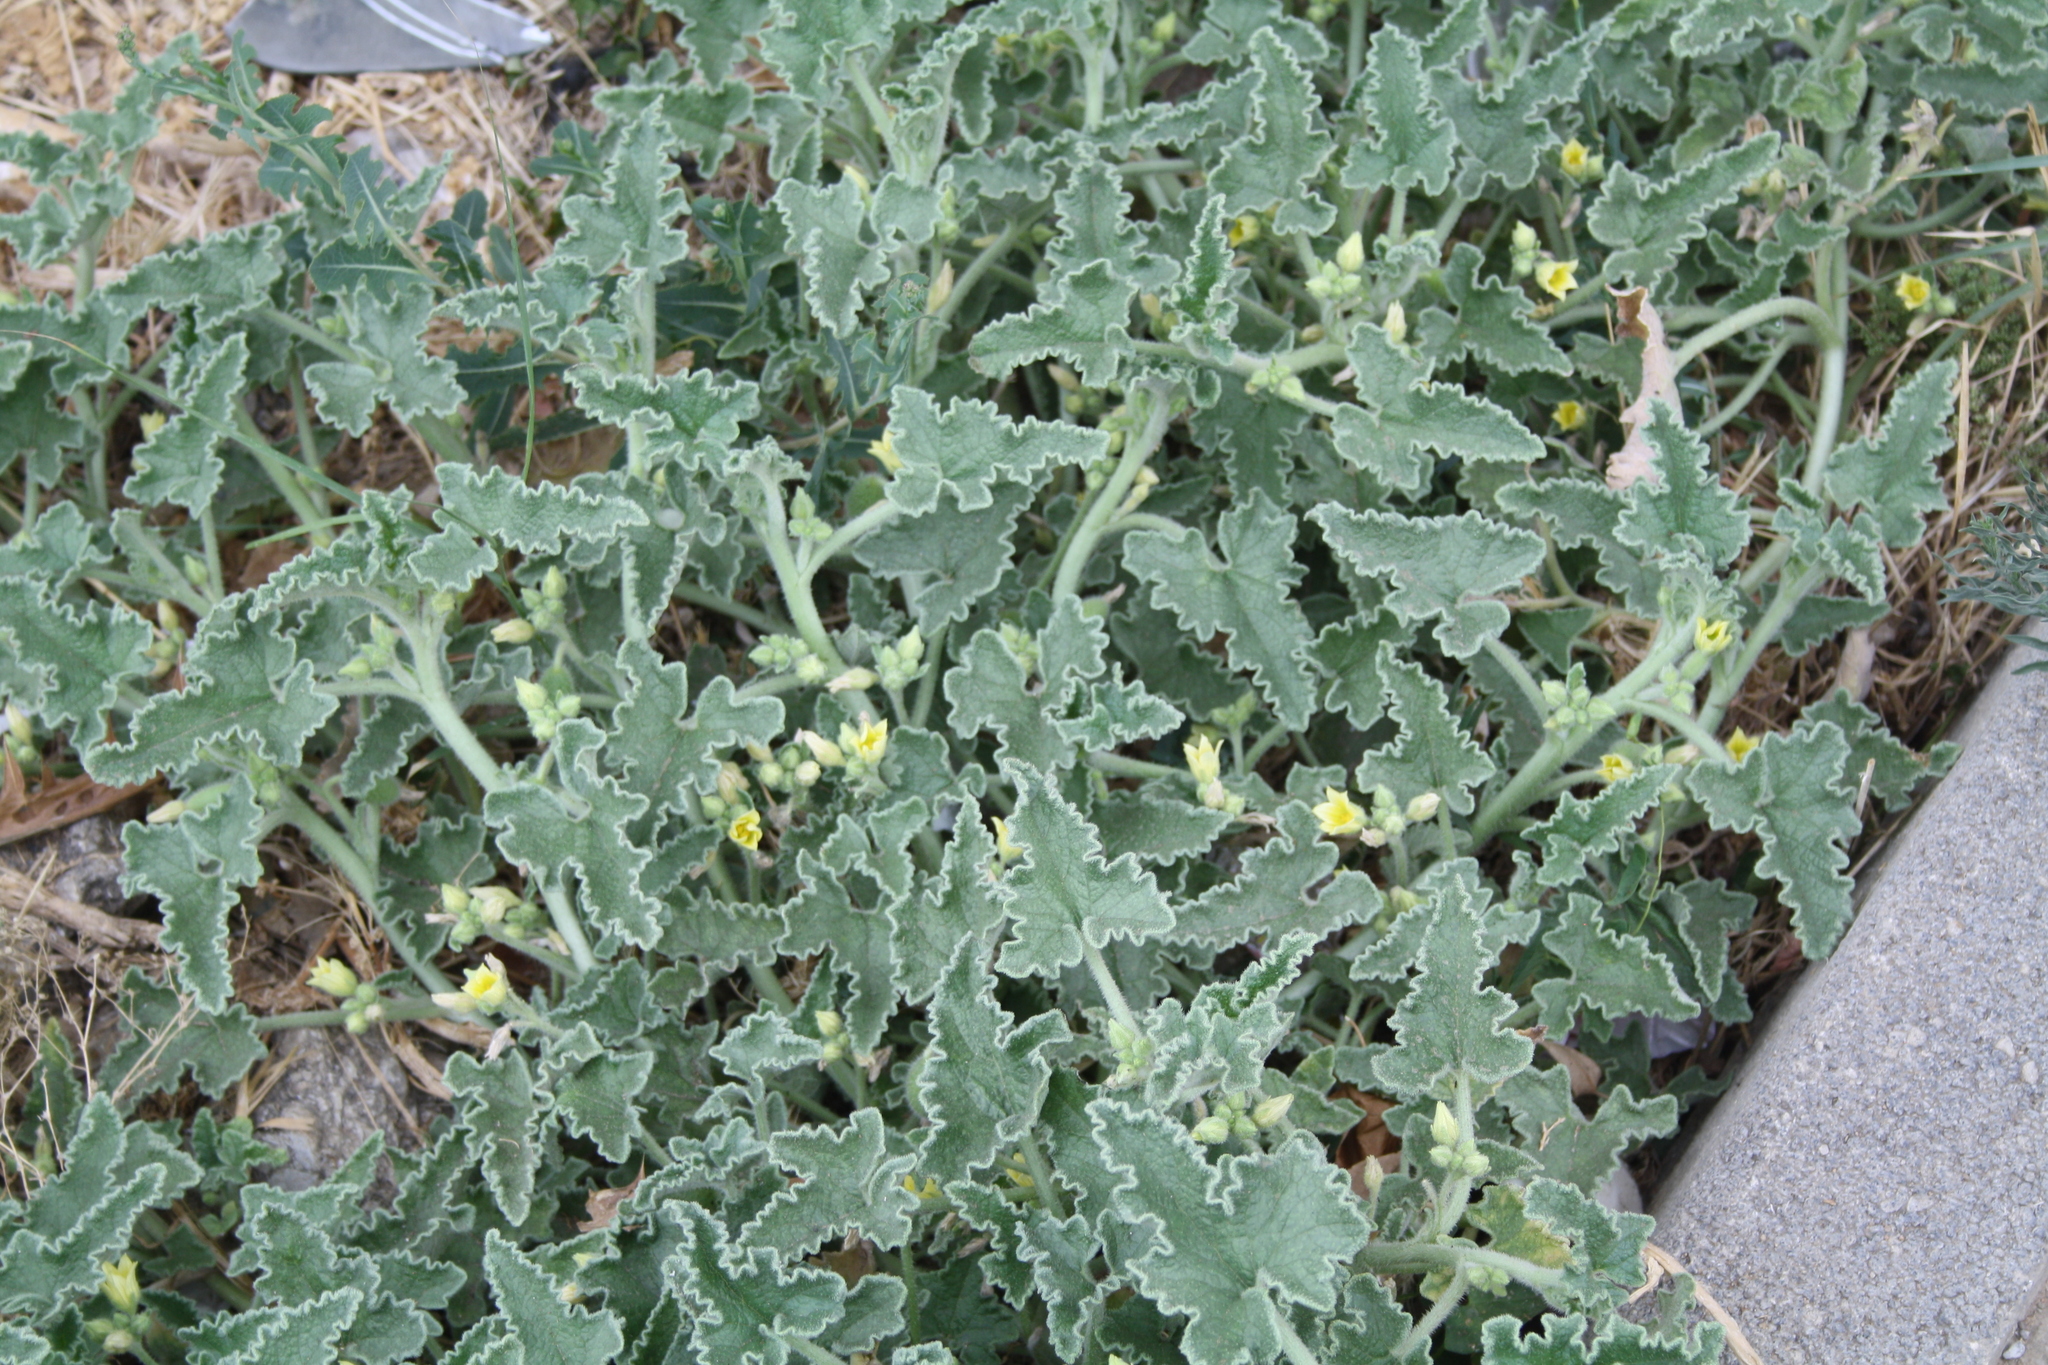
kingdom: Plantae
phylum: Tracheophyta
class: Magnoliopsida
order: Cucurbitales
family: Cucurbitaceae
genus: Ecballium
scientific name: Ecballium elaterium
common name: Squirting cucumber
